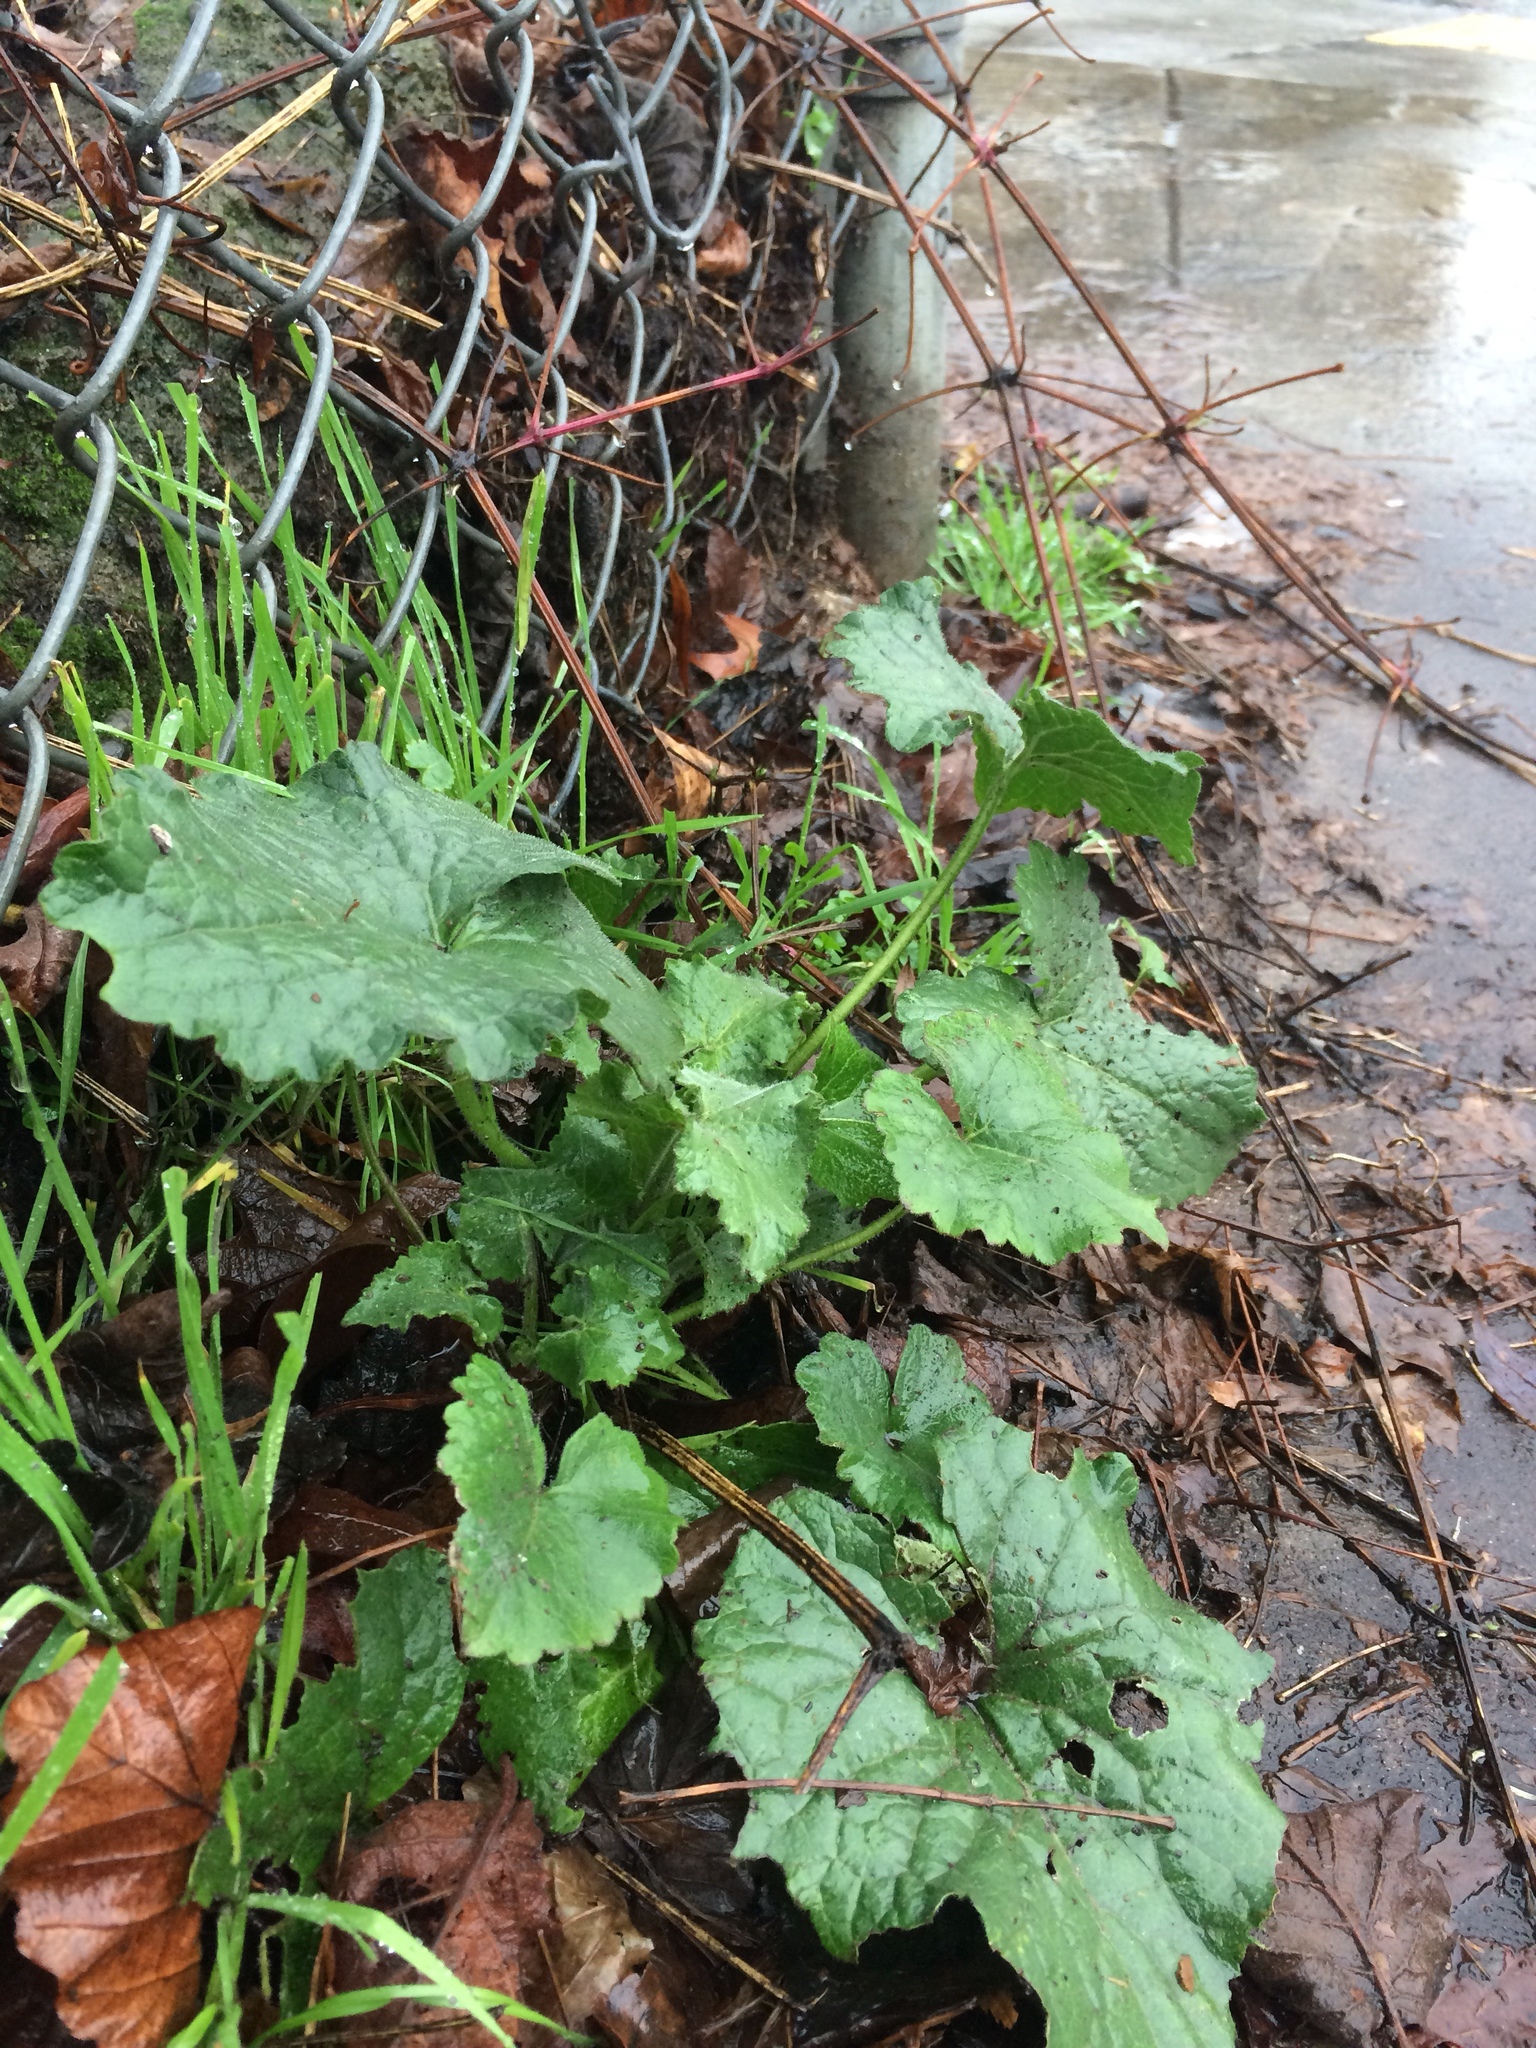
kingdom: Plantae
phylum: Tracheophyta
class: Magnoliopsida
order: Brassicales
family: Brassicaceae
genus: Lunaria
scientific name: Lunaria annua
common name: Honesty
